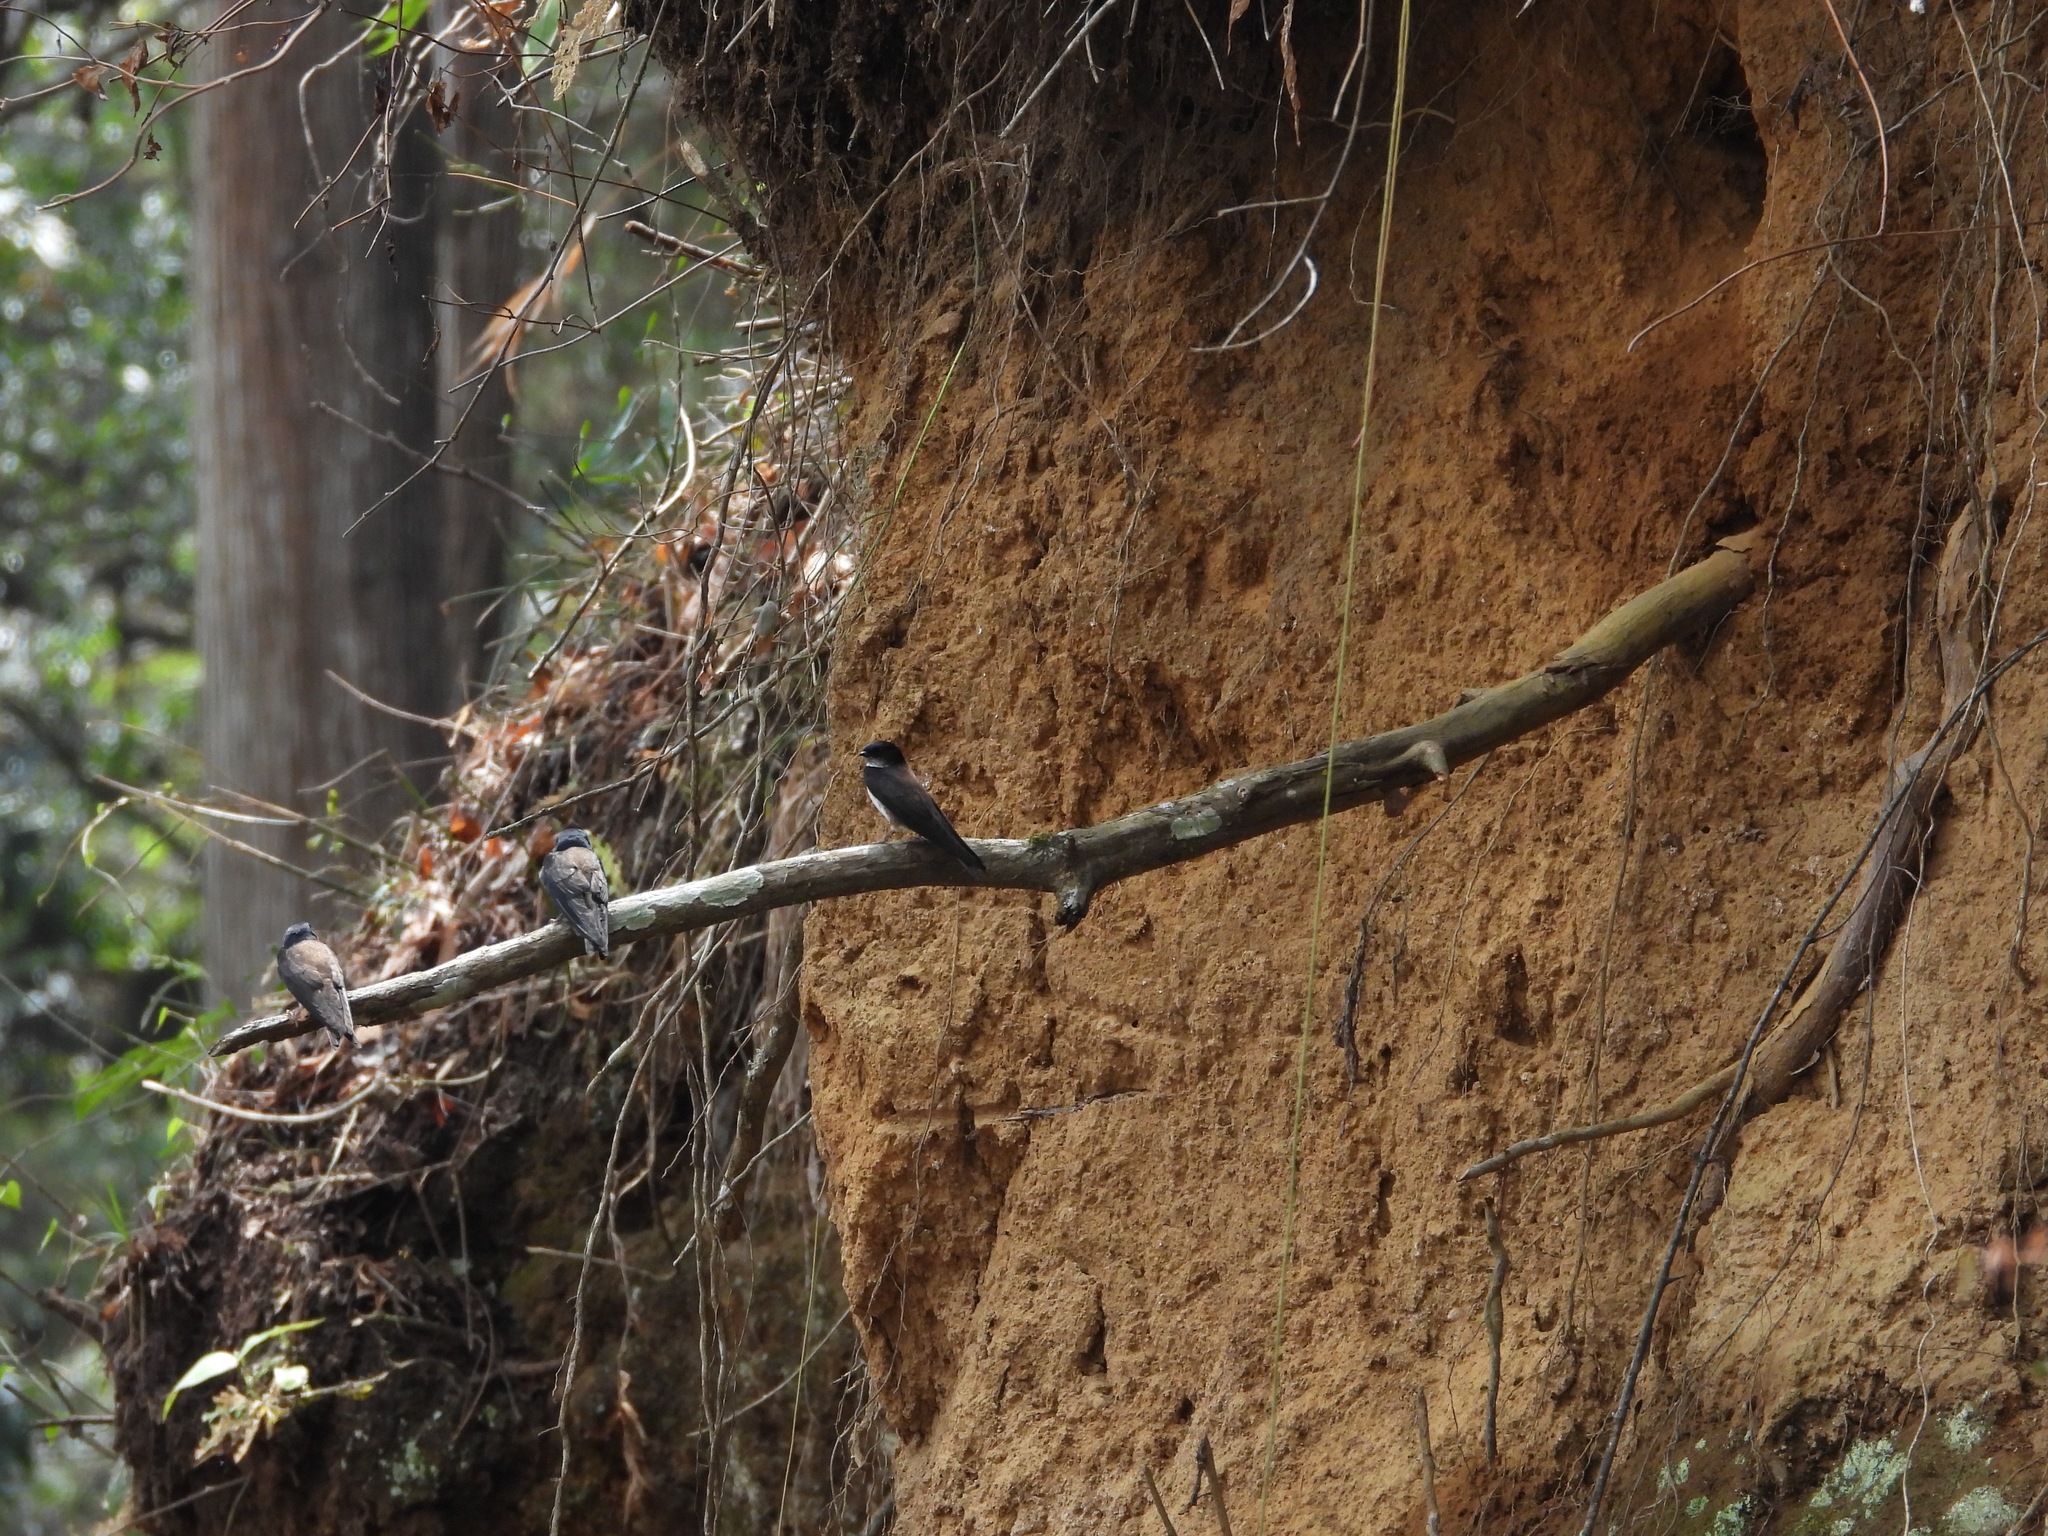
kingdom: Animalia
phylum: Chordata
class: Aves
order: Passeriformes
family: Hirundinidae
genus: Notiochelidon
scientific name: Notiochelidon pileata
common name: Black-capped swallow
